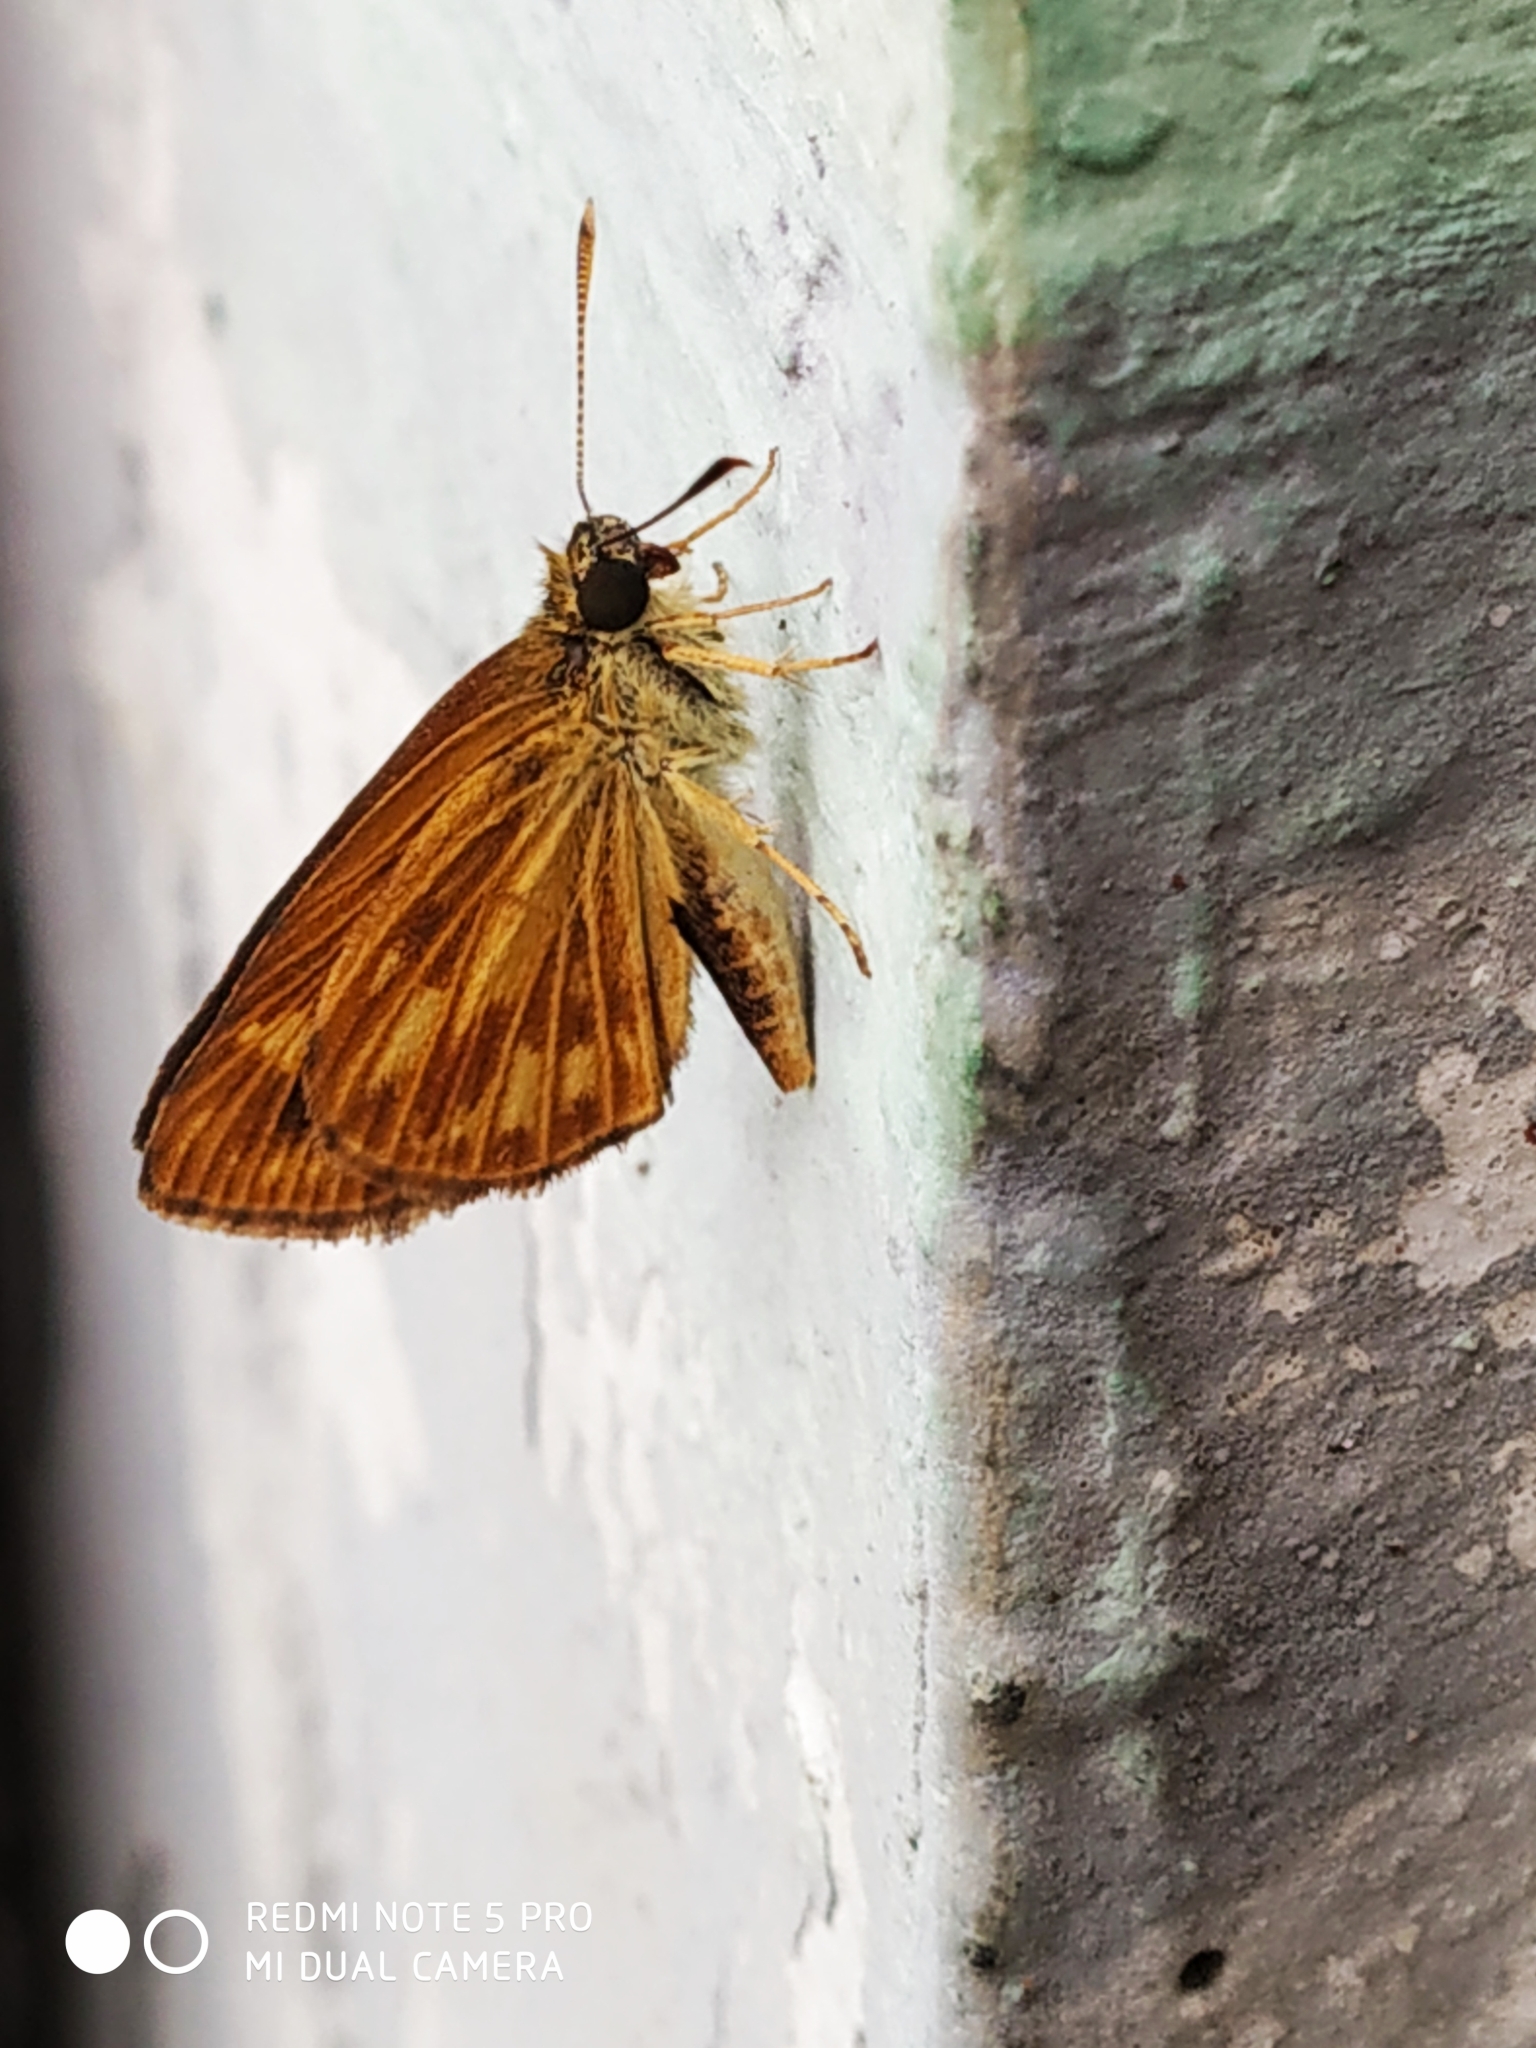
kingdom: Animalia
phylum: Arthropoda
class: Insecta
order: Lepidoptera
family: Hesperiidae
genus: Baracus
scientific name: Baracus vittatus
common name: Hedge-hopper
